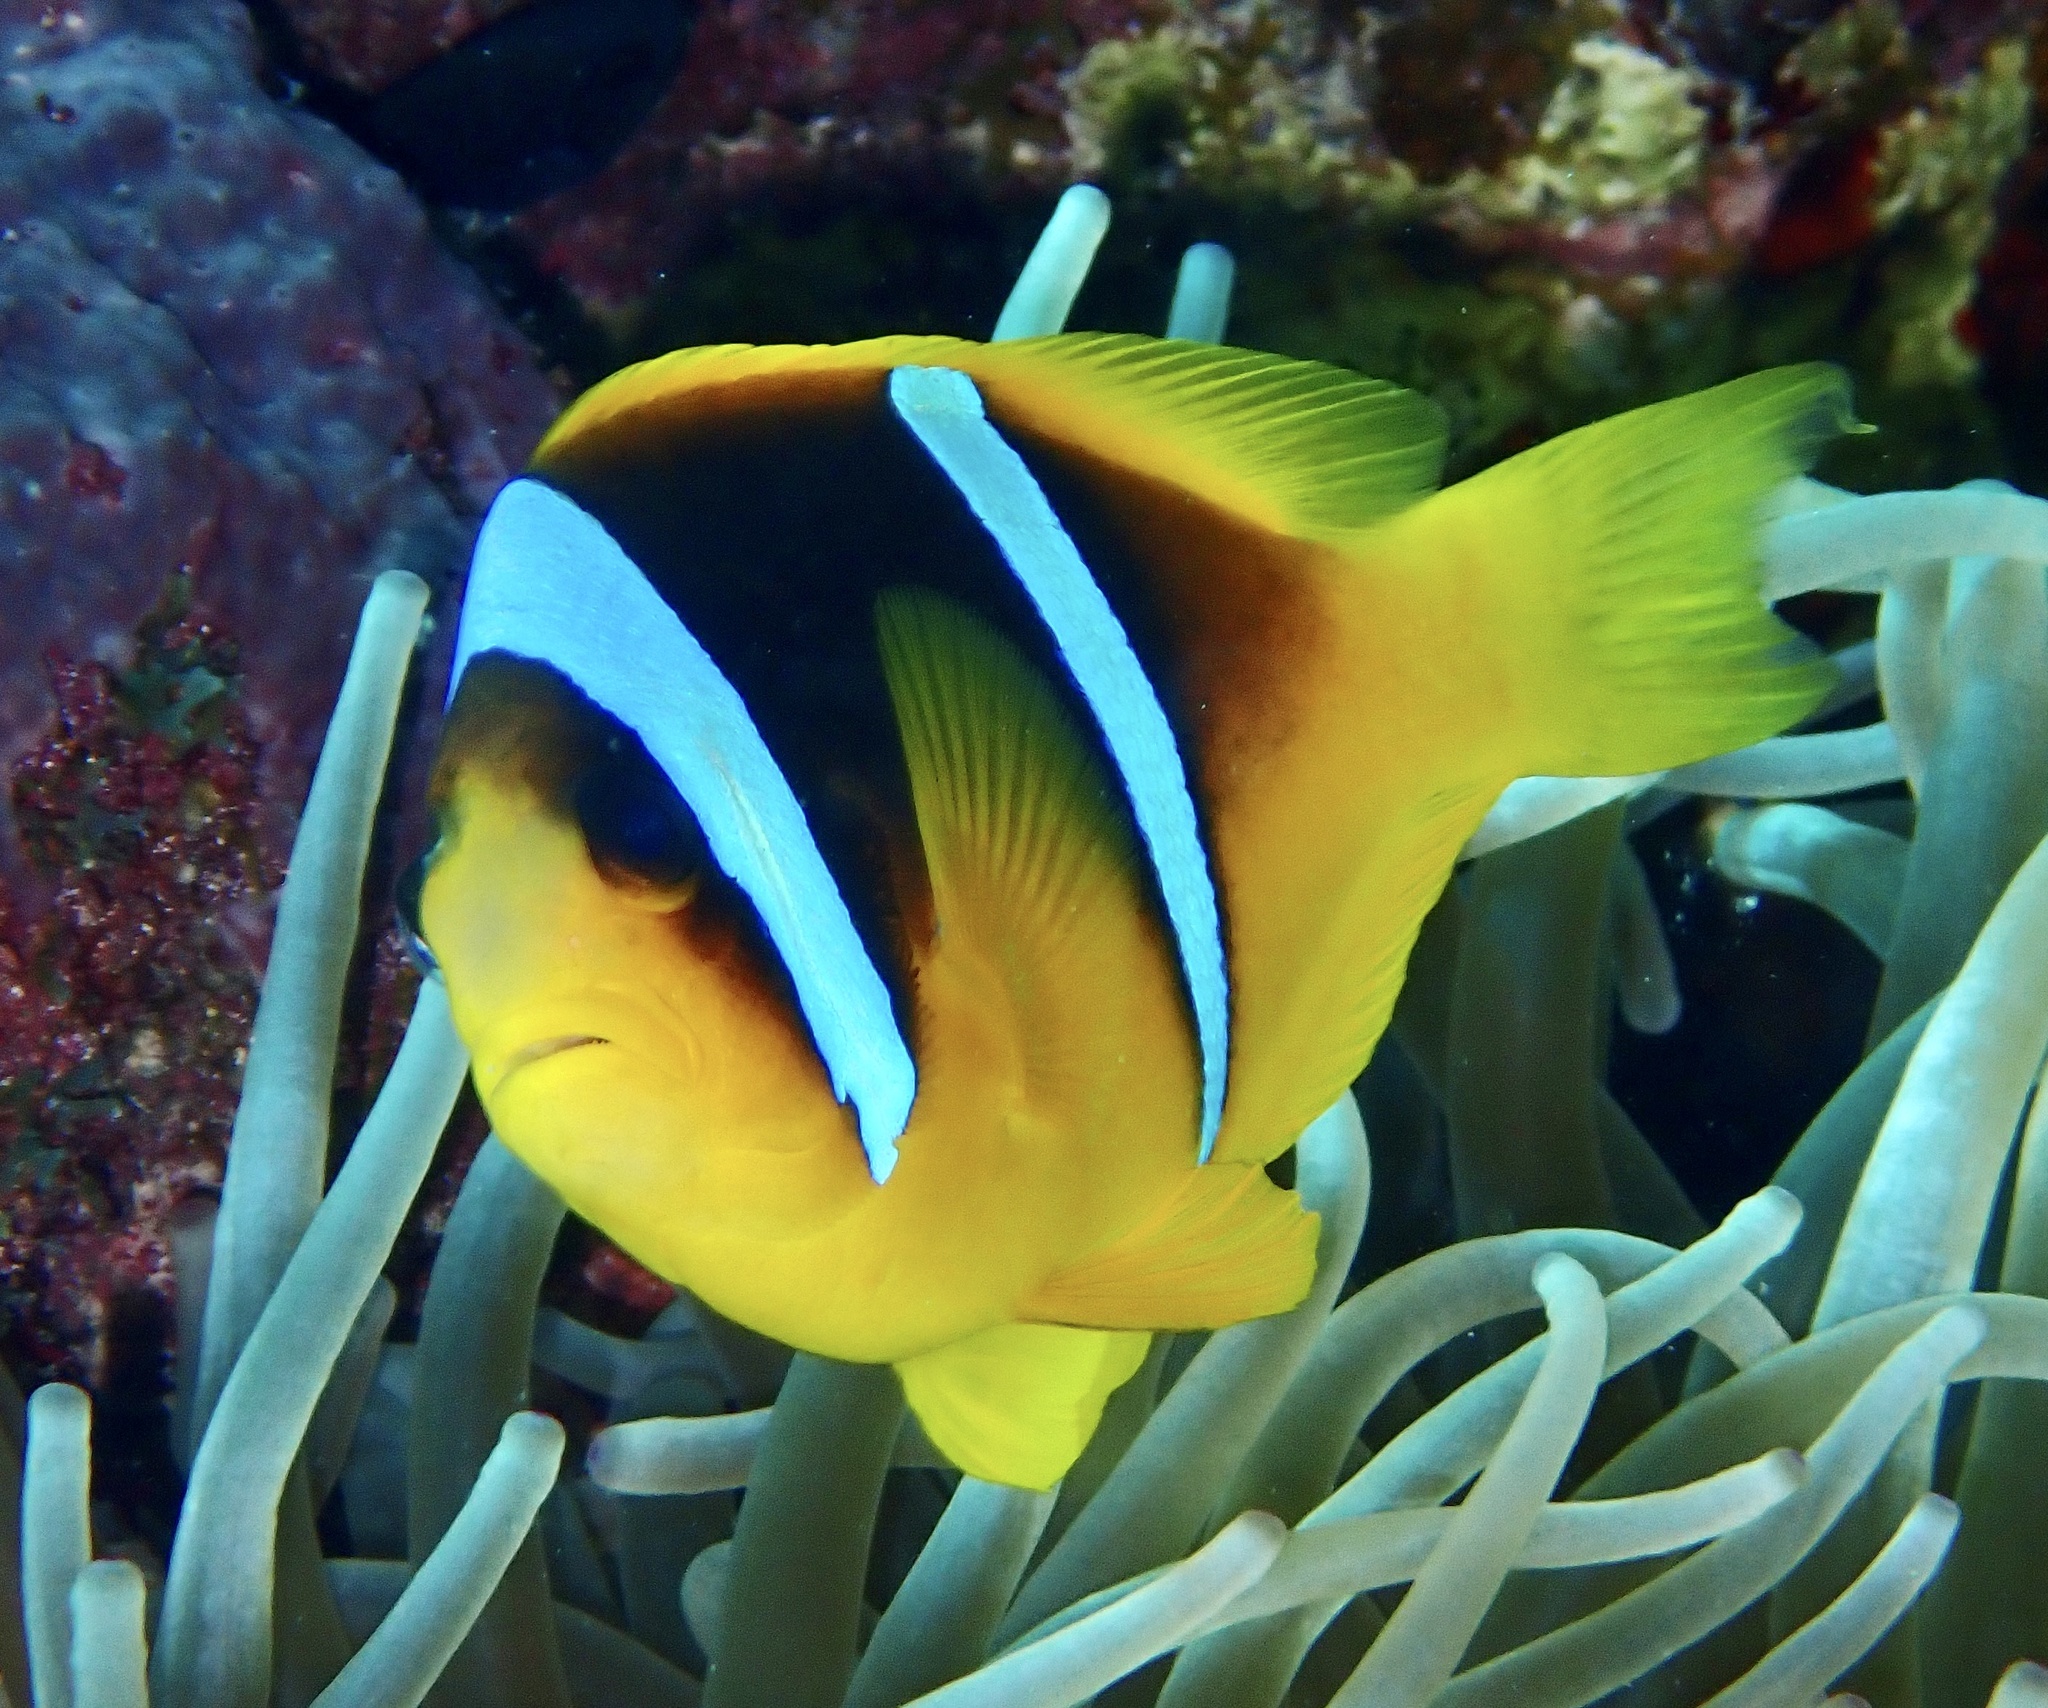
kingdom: Animalia
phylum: Chordata
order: Perciformes
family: Pomacentridae
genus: Amphiprion
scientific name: Amphiprion bicinctus
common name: Two-banded anemonefish
